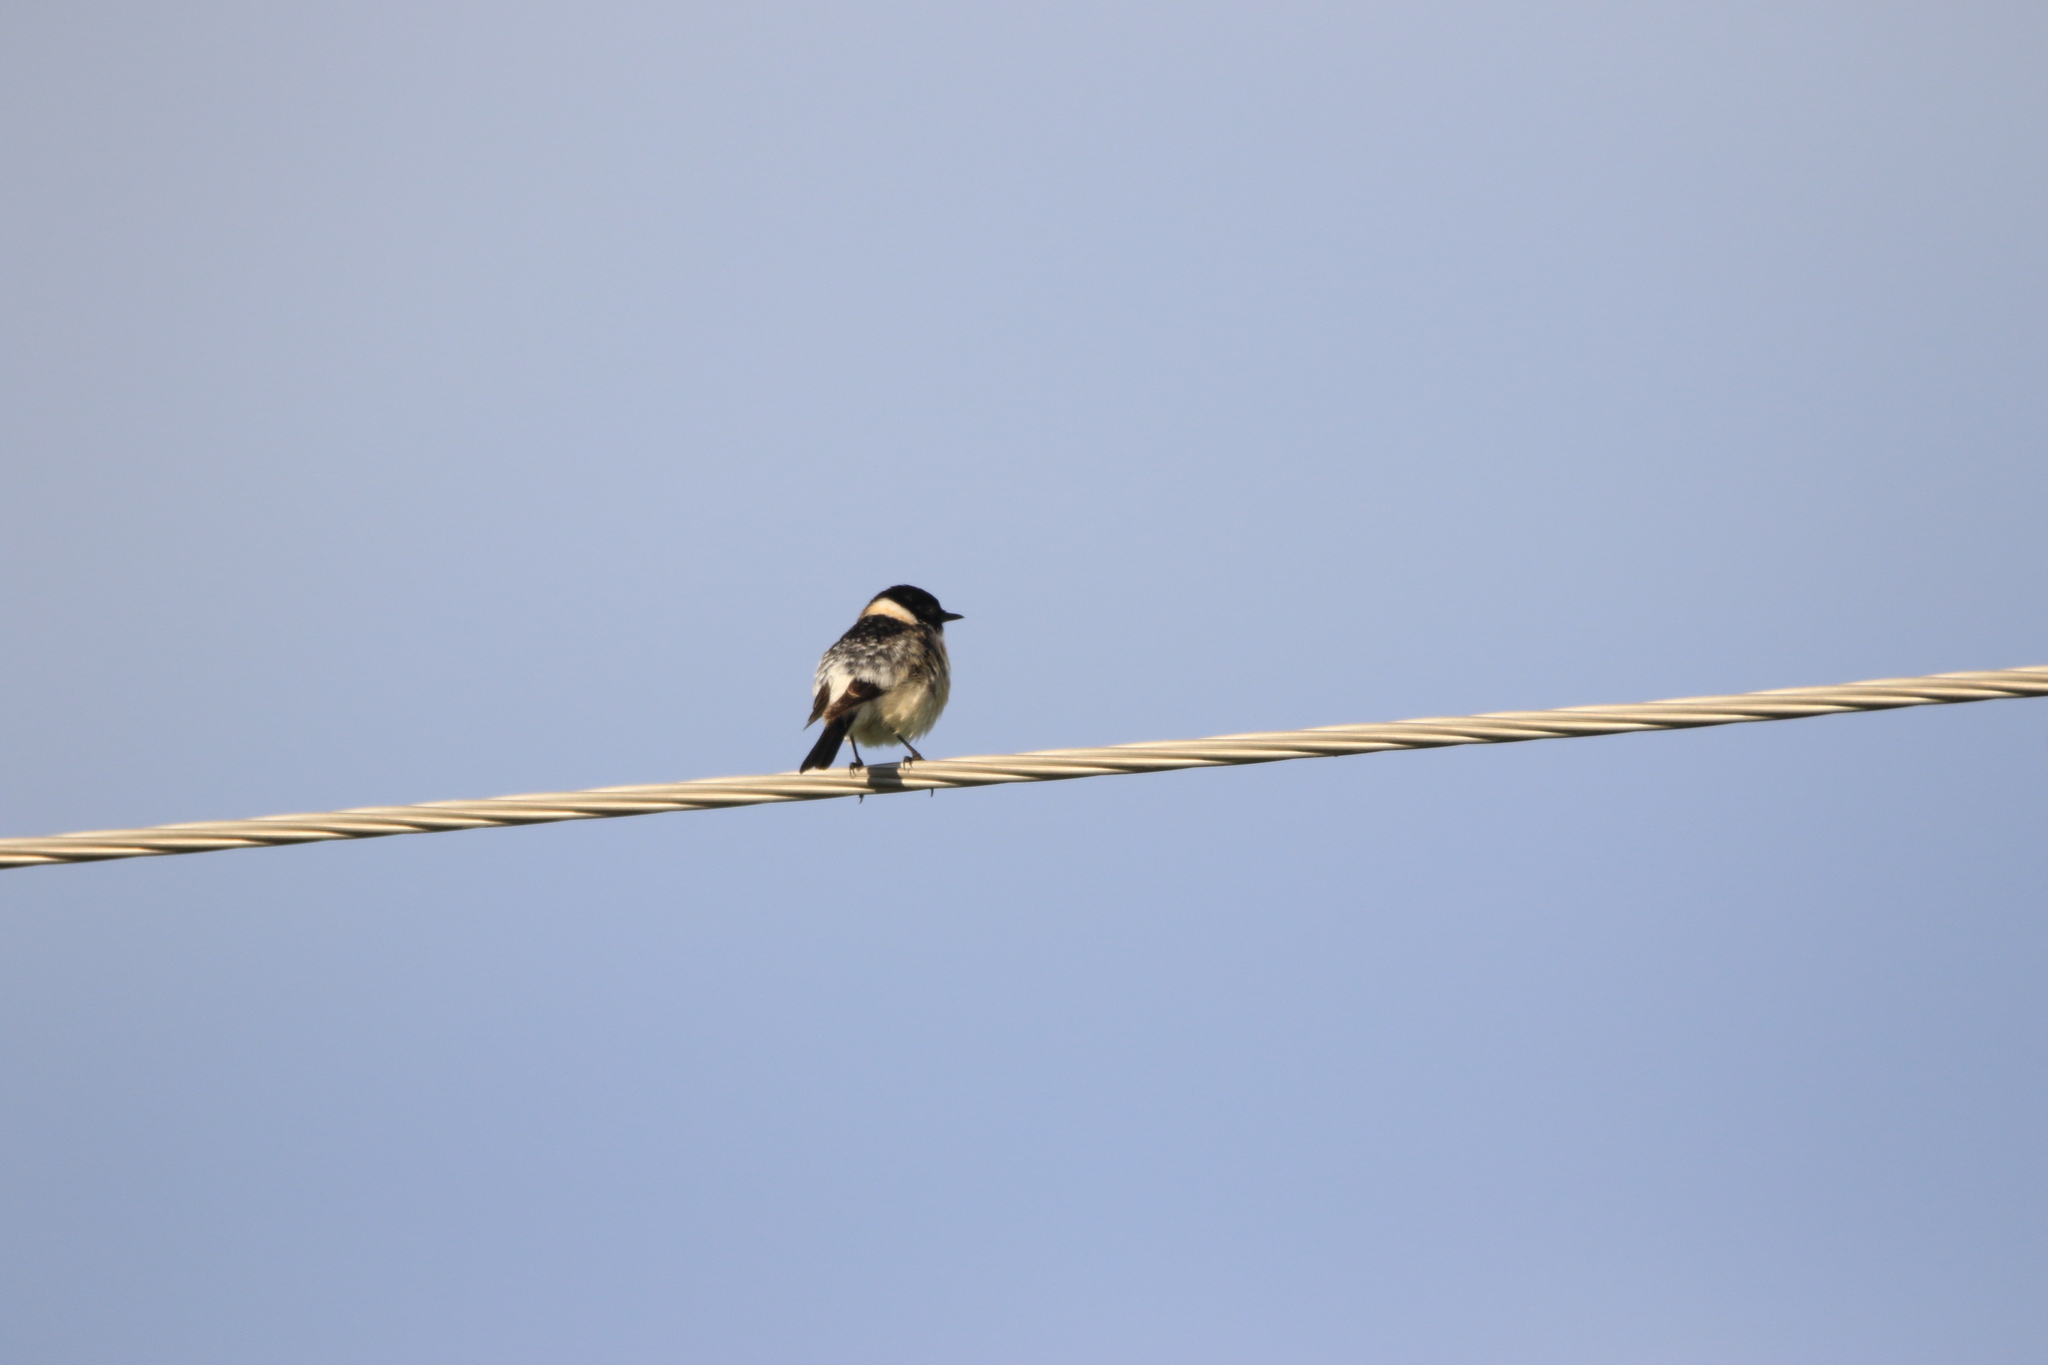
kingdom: Animalia
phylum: Chordata
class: Aves
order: Passeriformes
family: Muscicapidae
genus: Saxicola
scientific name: Saxicola maurus
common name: Siberian stonechat
